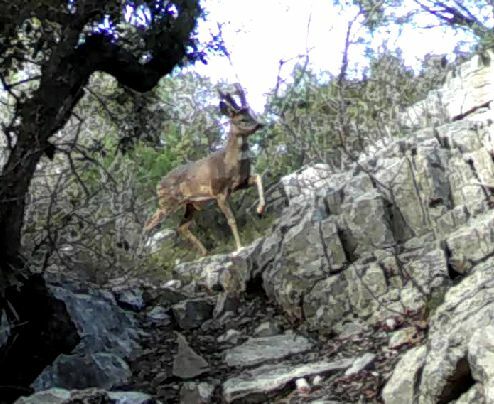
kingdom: Animalia
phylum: Chordata
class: Mammalia
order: Artiodactyla
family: Cervidae
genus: Capreolus
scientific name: Capreolus capreolus
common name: Western roe deer
